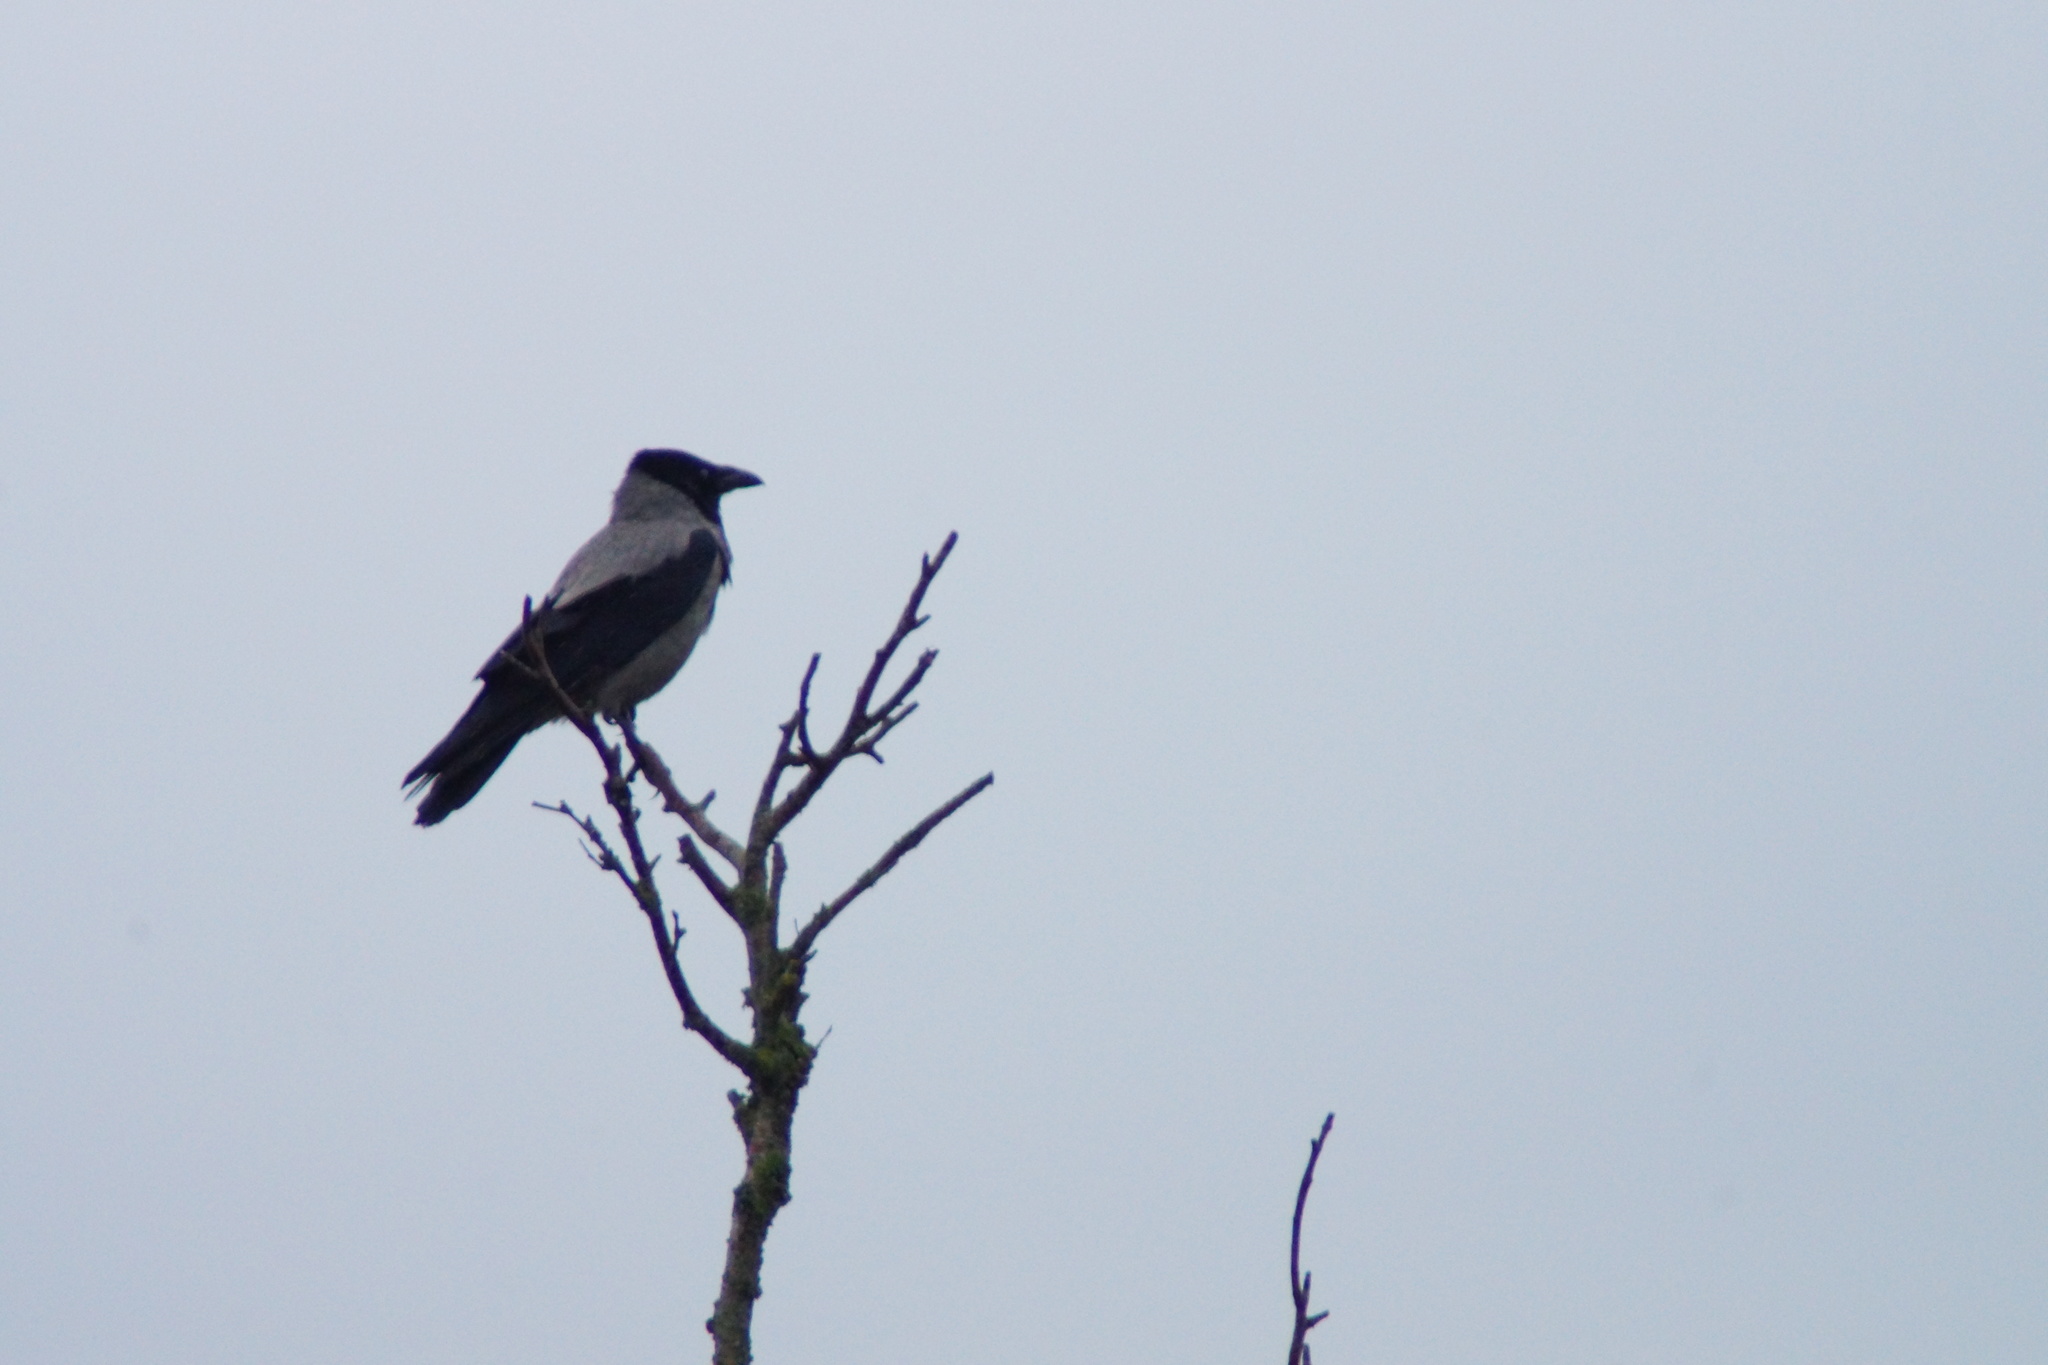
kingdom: Animalia
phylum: Chordata
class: Aves
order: Passeriformes
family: Corvidae
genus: Corvus
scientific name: Corvus cornix
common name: Hooded crow
